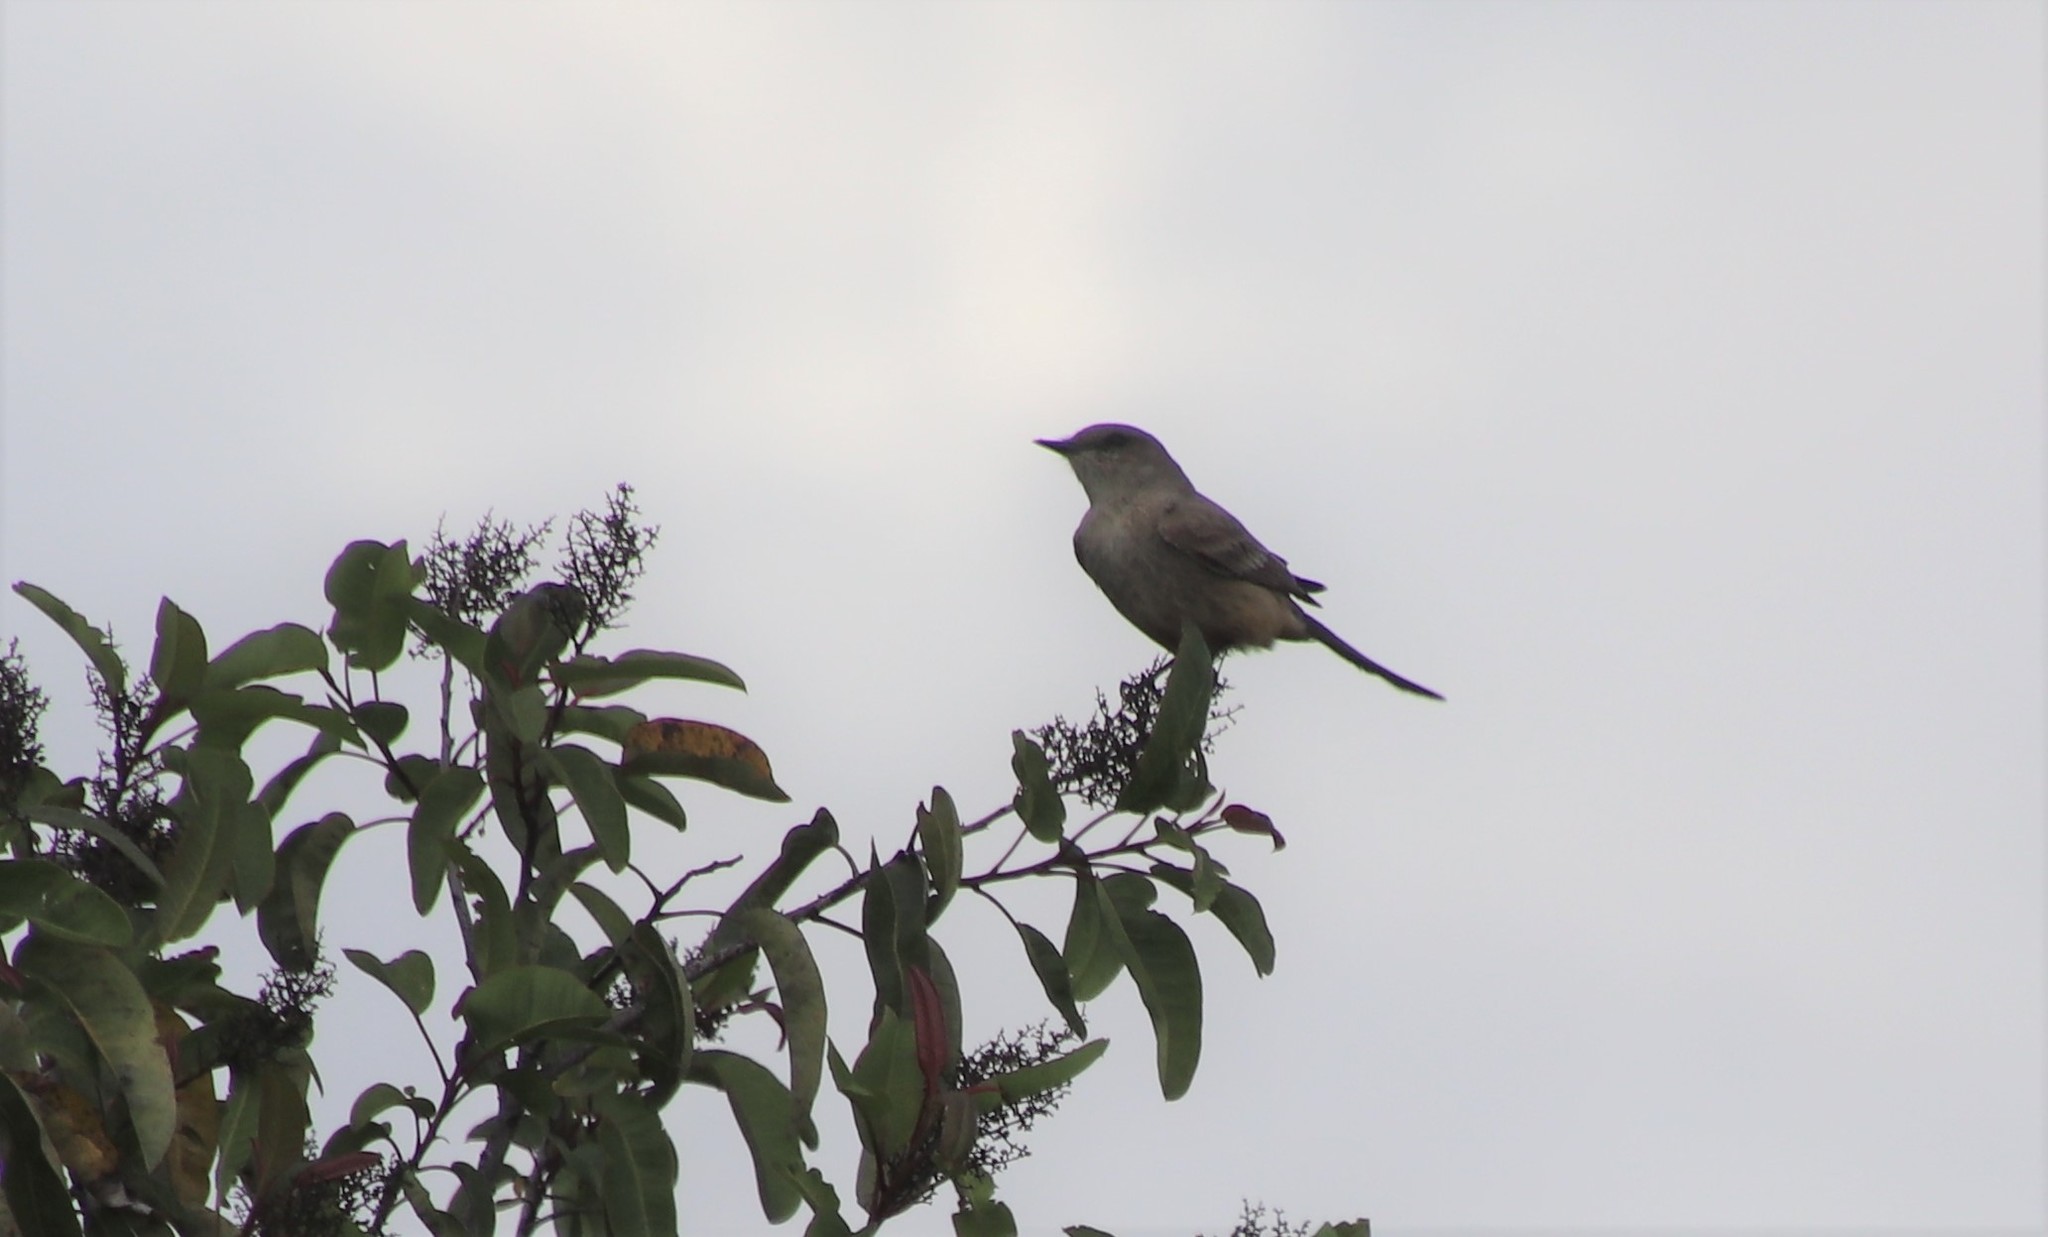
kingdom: Animalia
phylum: Chordata
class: Aves
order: Passeriformes
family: Tyrannidae
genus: Sayornis
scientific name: Sayornis saya
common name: Say's phoebe
